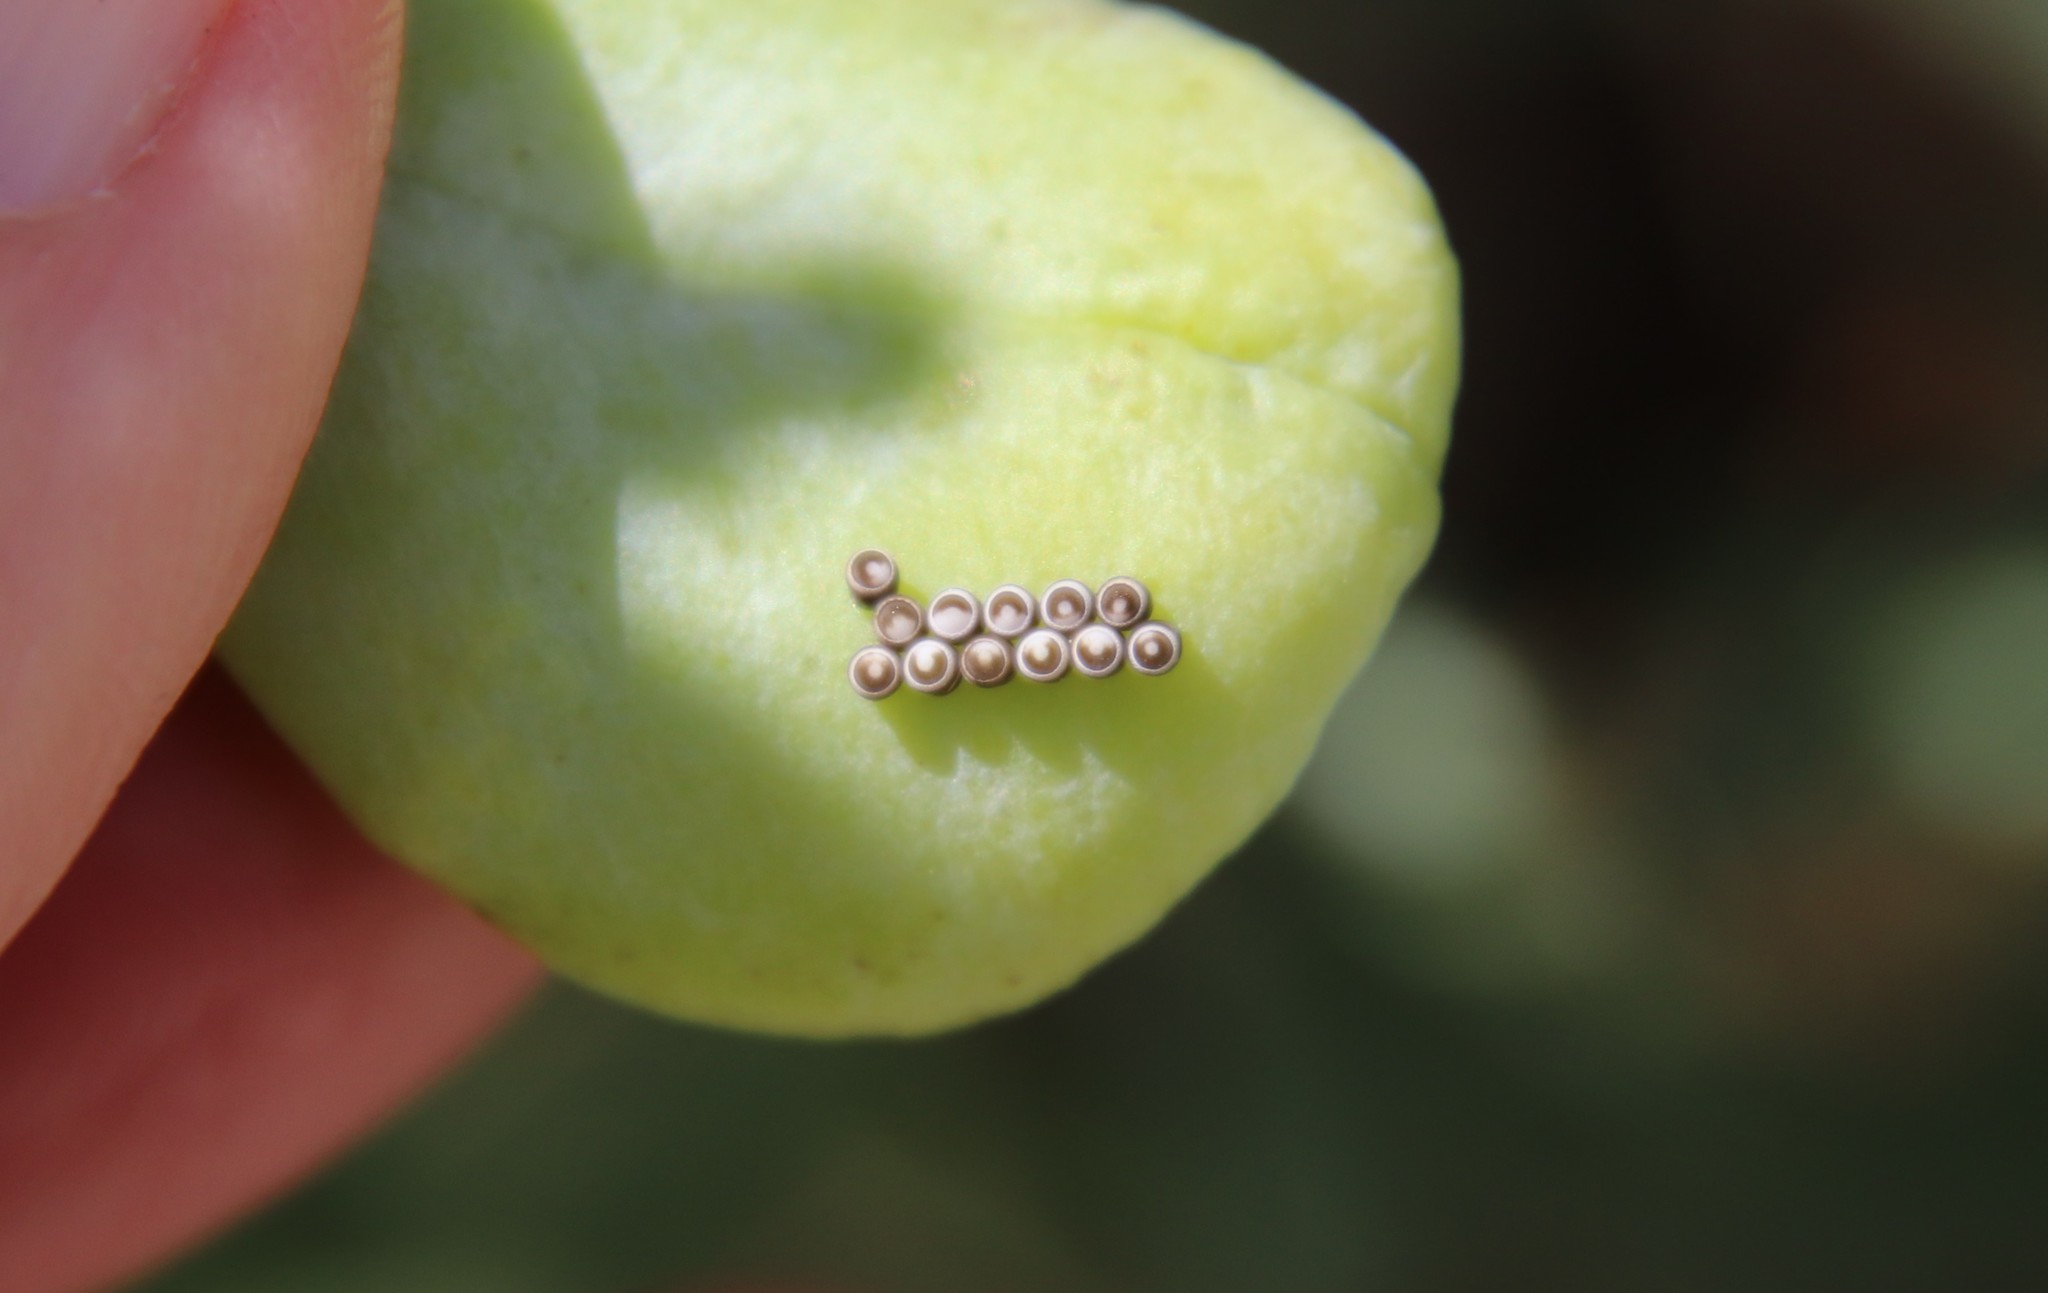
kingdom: Animalia
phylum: Arthropoda
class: Insecta
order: Hemiptera
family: Pentatomidae
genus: Murgantia
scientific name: Murgantia histrionica
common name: Harlequin bug
